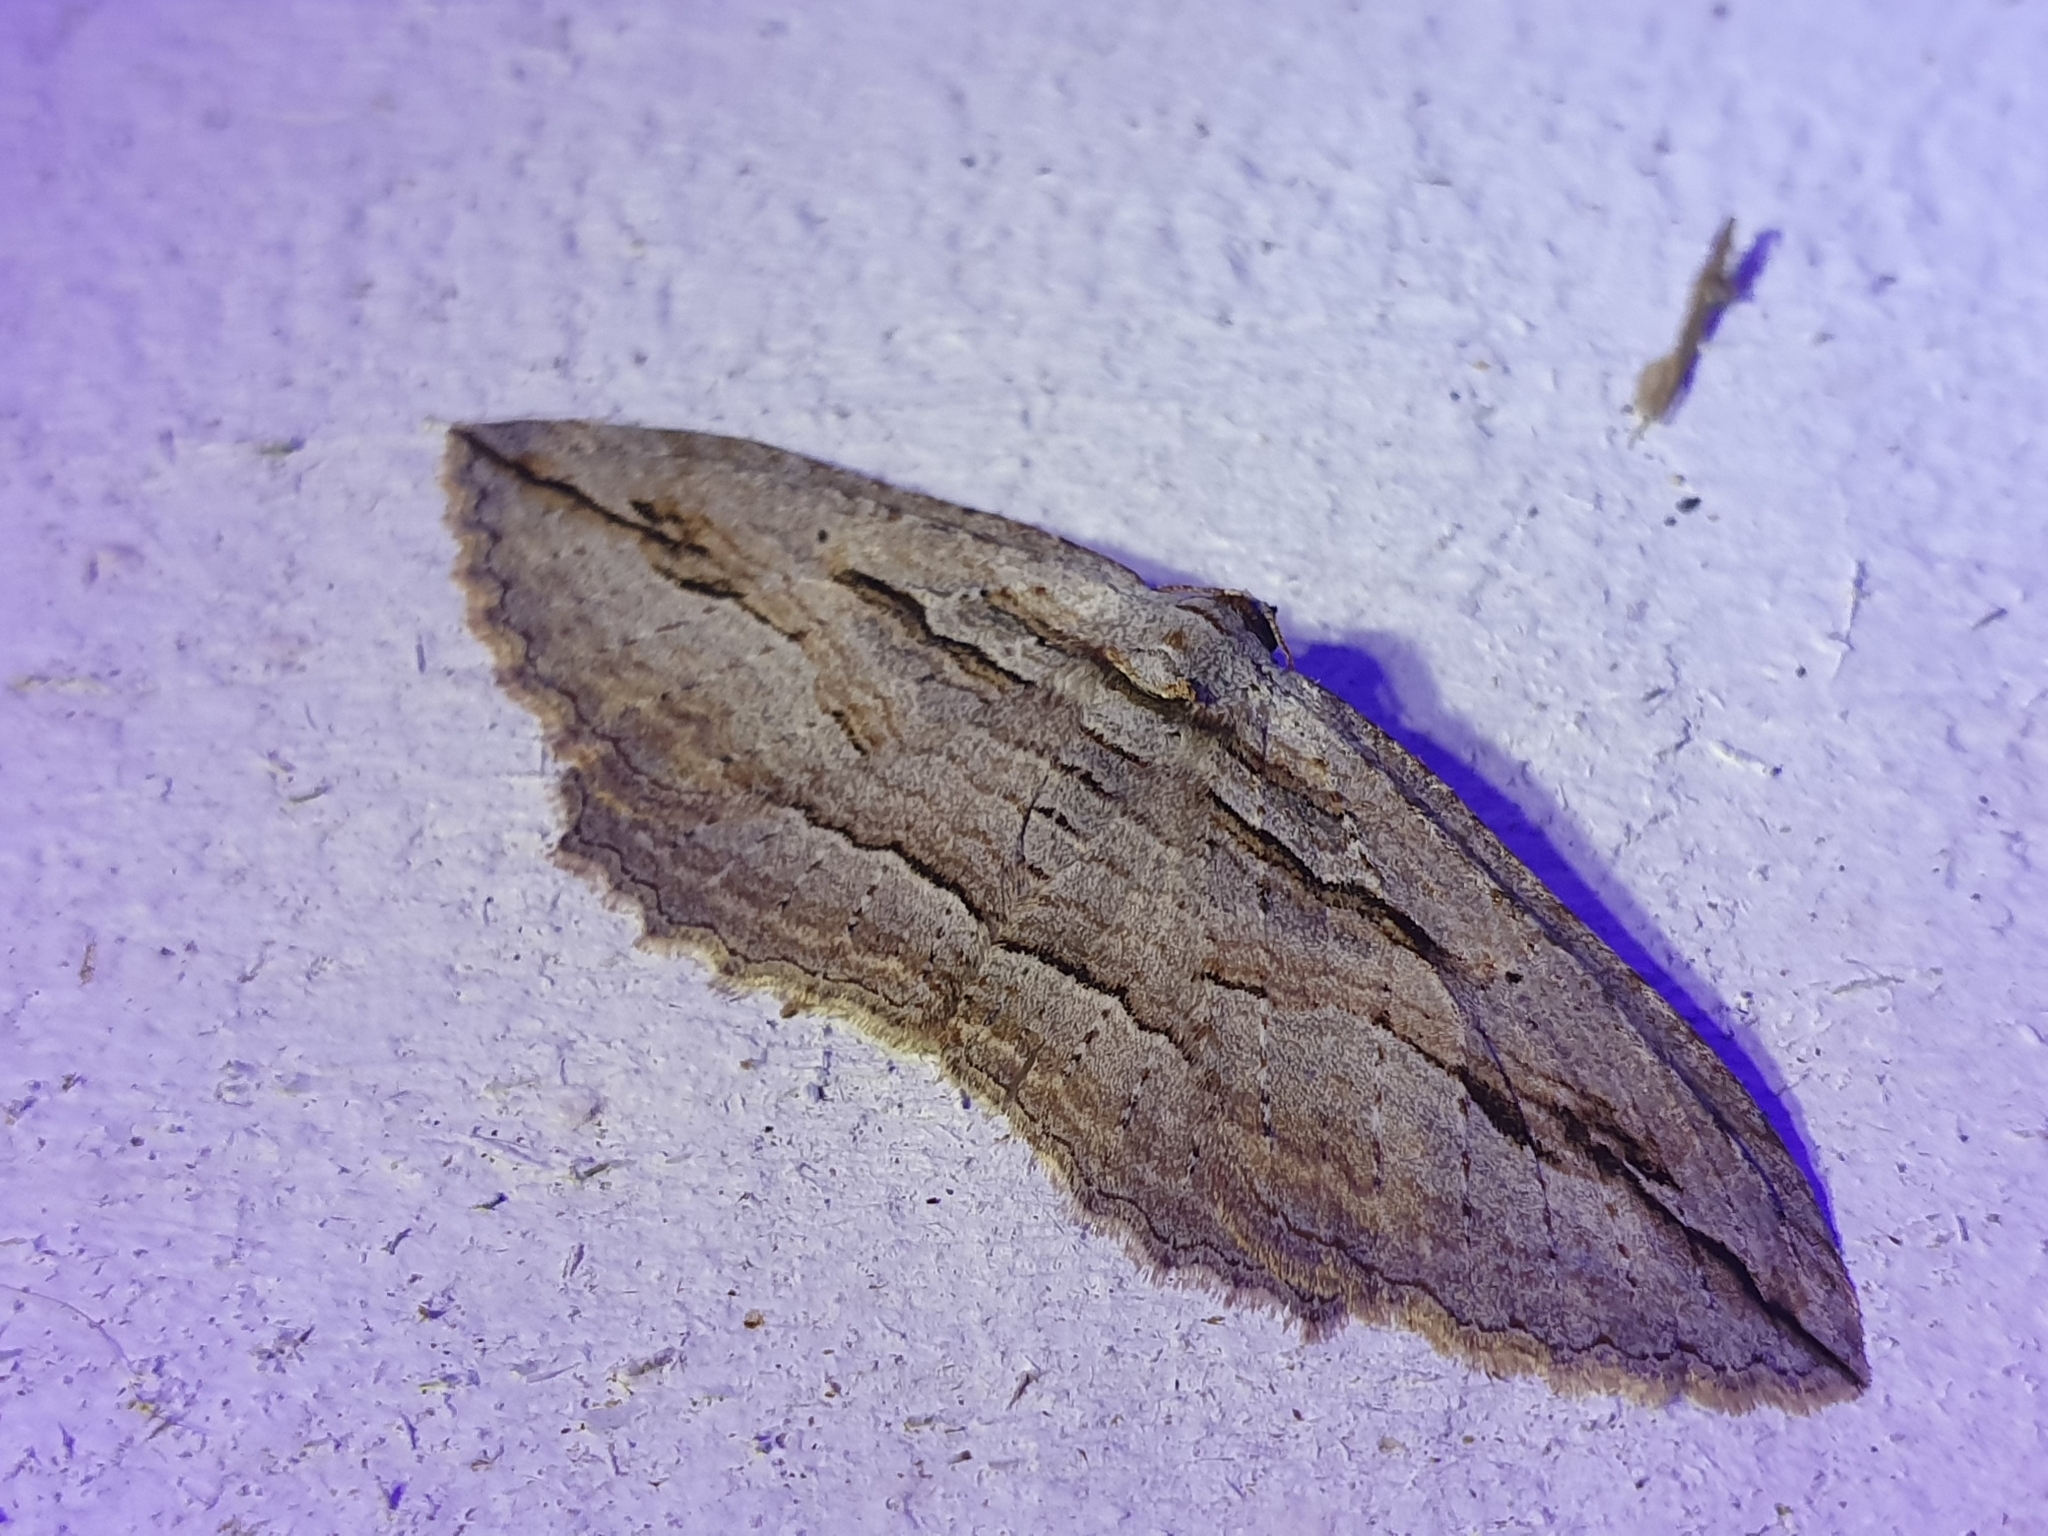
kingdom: Animalia
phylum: Arthropoda
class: Insecta
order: Lepidoptera
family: Geometridae
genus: Austrocidaria
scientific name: Austrocidaria gobiata
